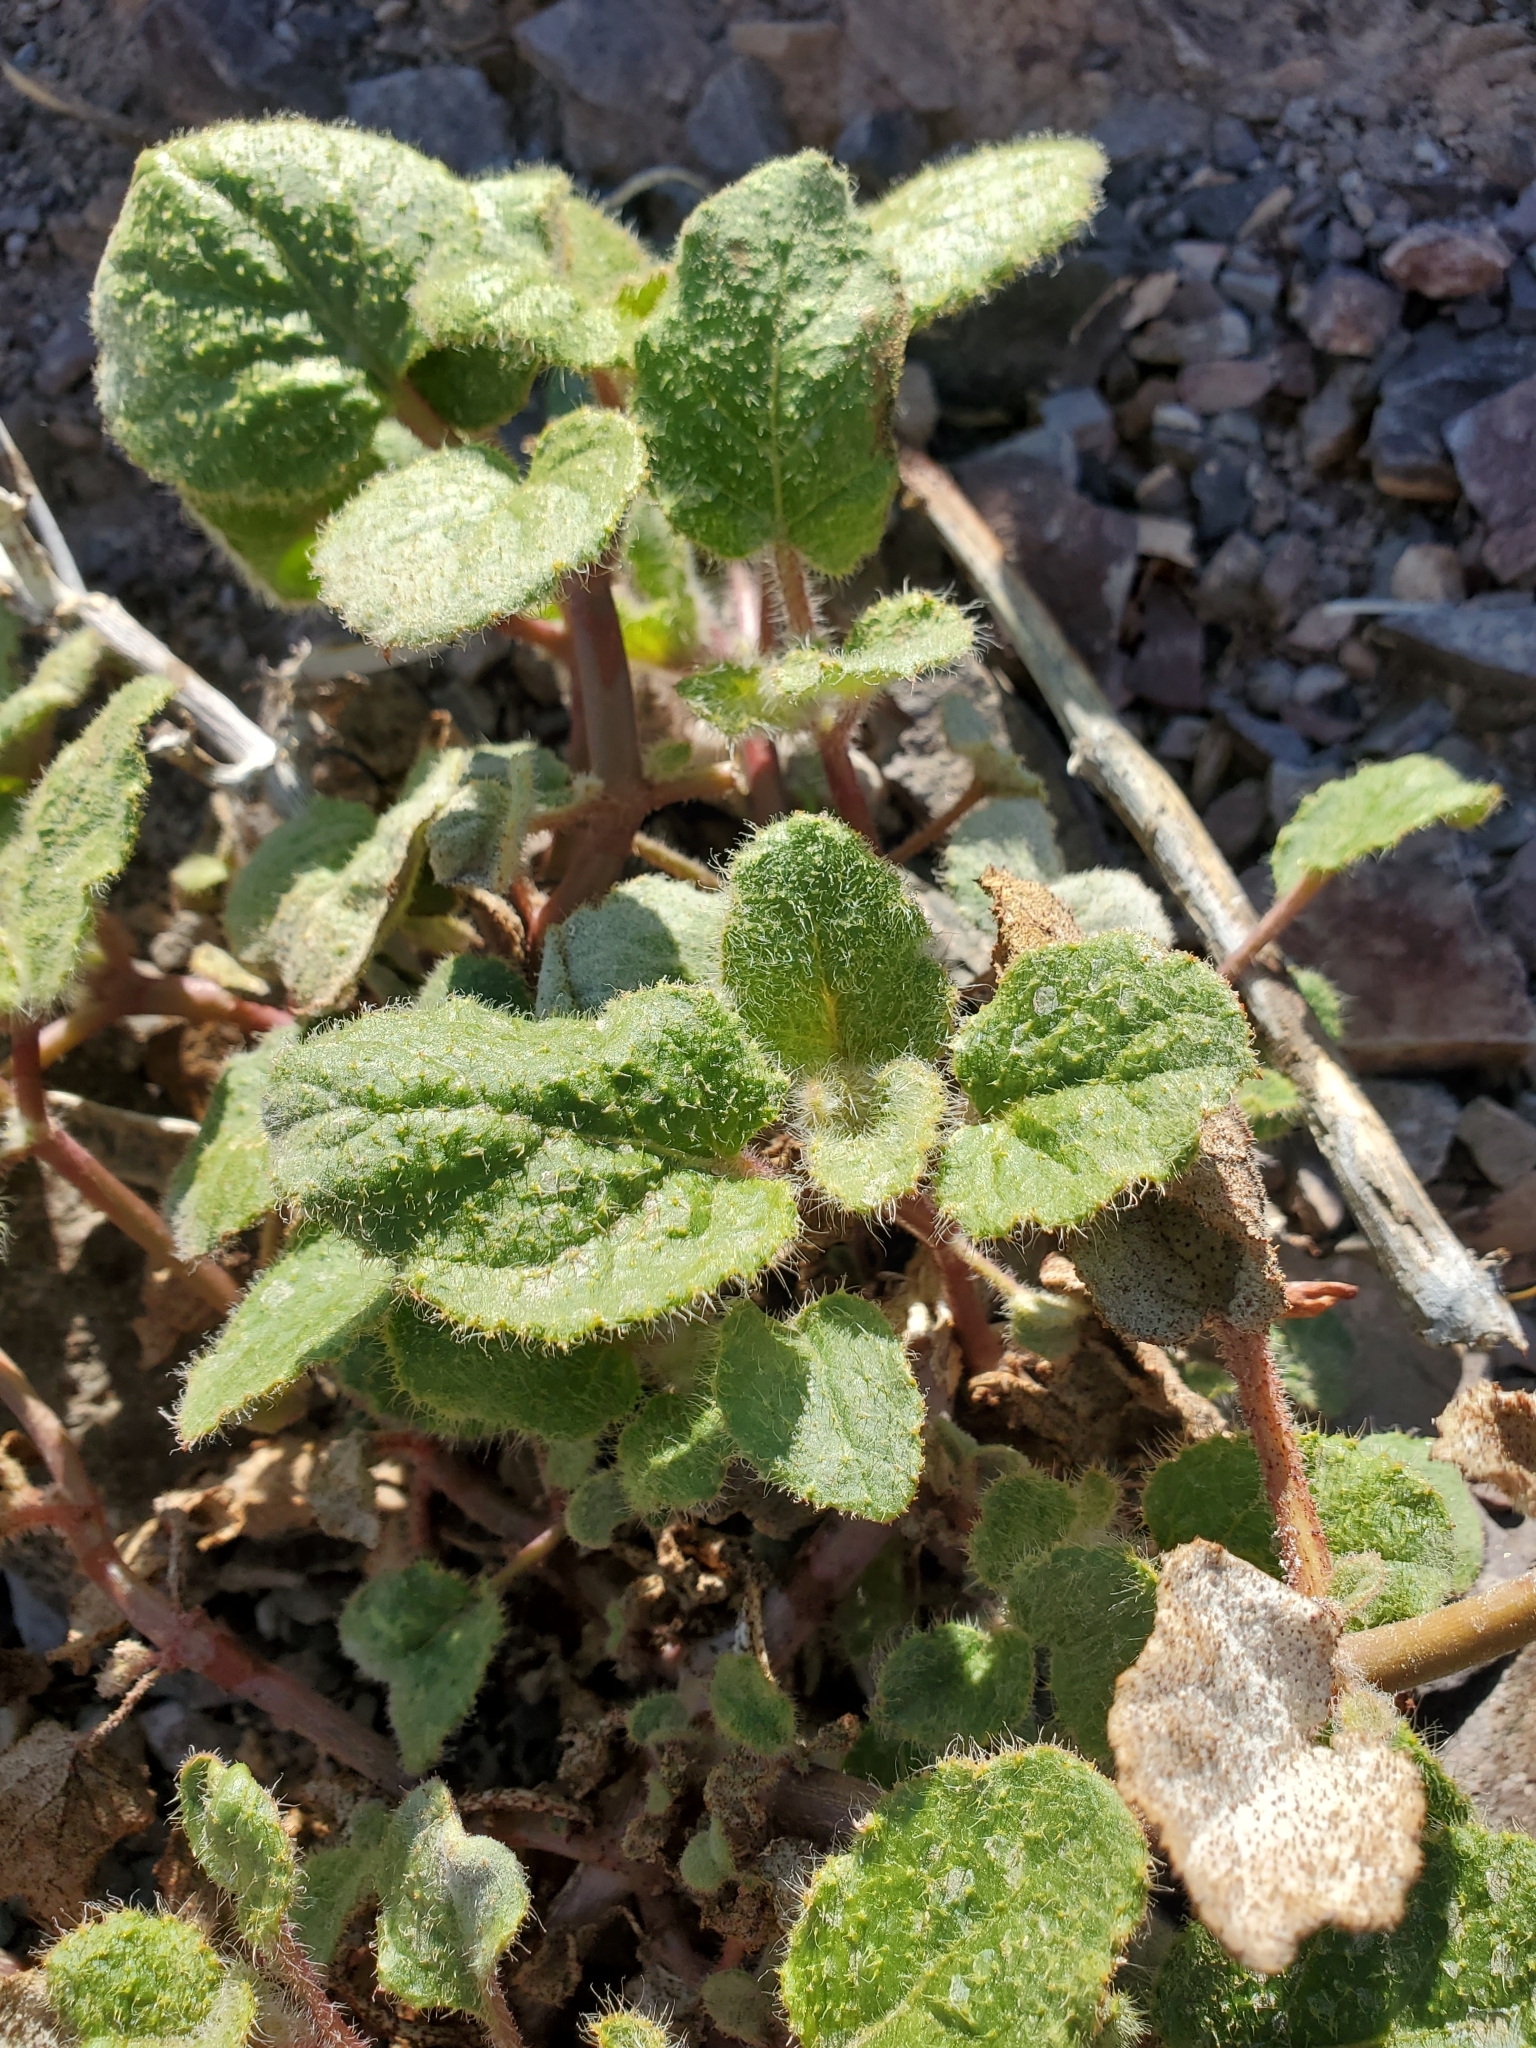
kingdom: Plantae
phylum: Tracheophyta
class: Magnoliopsida
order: Caryophyllales
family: Nyctaginaceae
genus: Anulocaulis
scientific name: Anulocaulis annulatus
